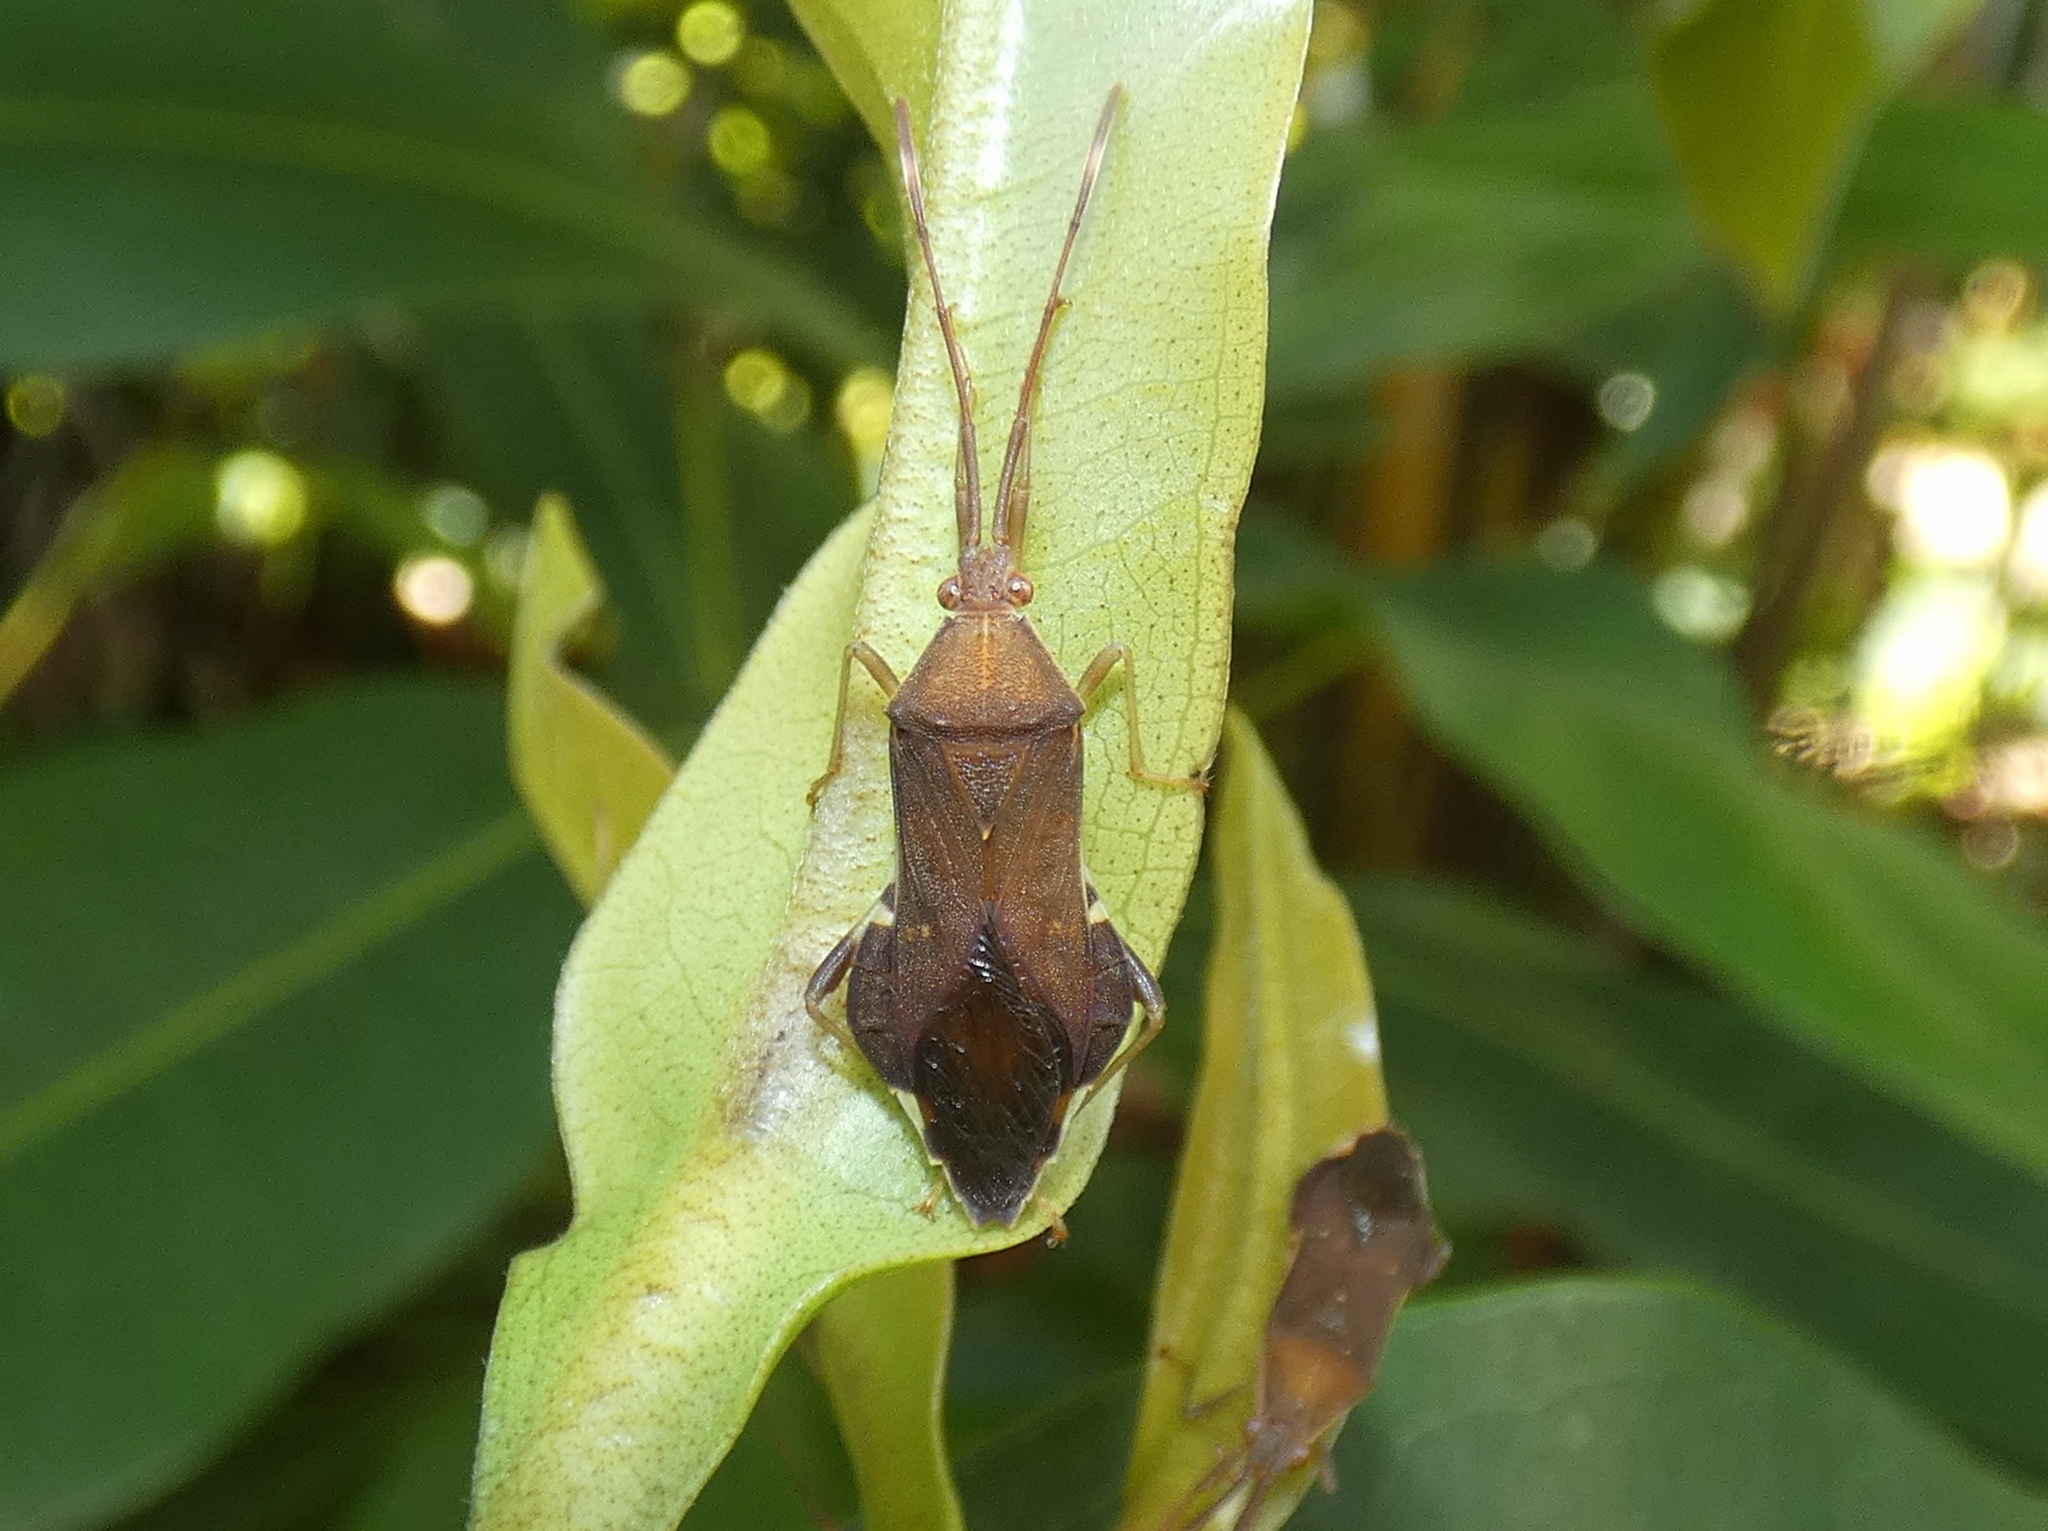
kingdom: Animalia
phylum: Arthropoda
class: Insecta
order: Hemiptera
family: Coreidae
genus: Cneius
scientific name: Cneius dentipes
